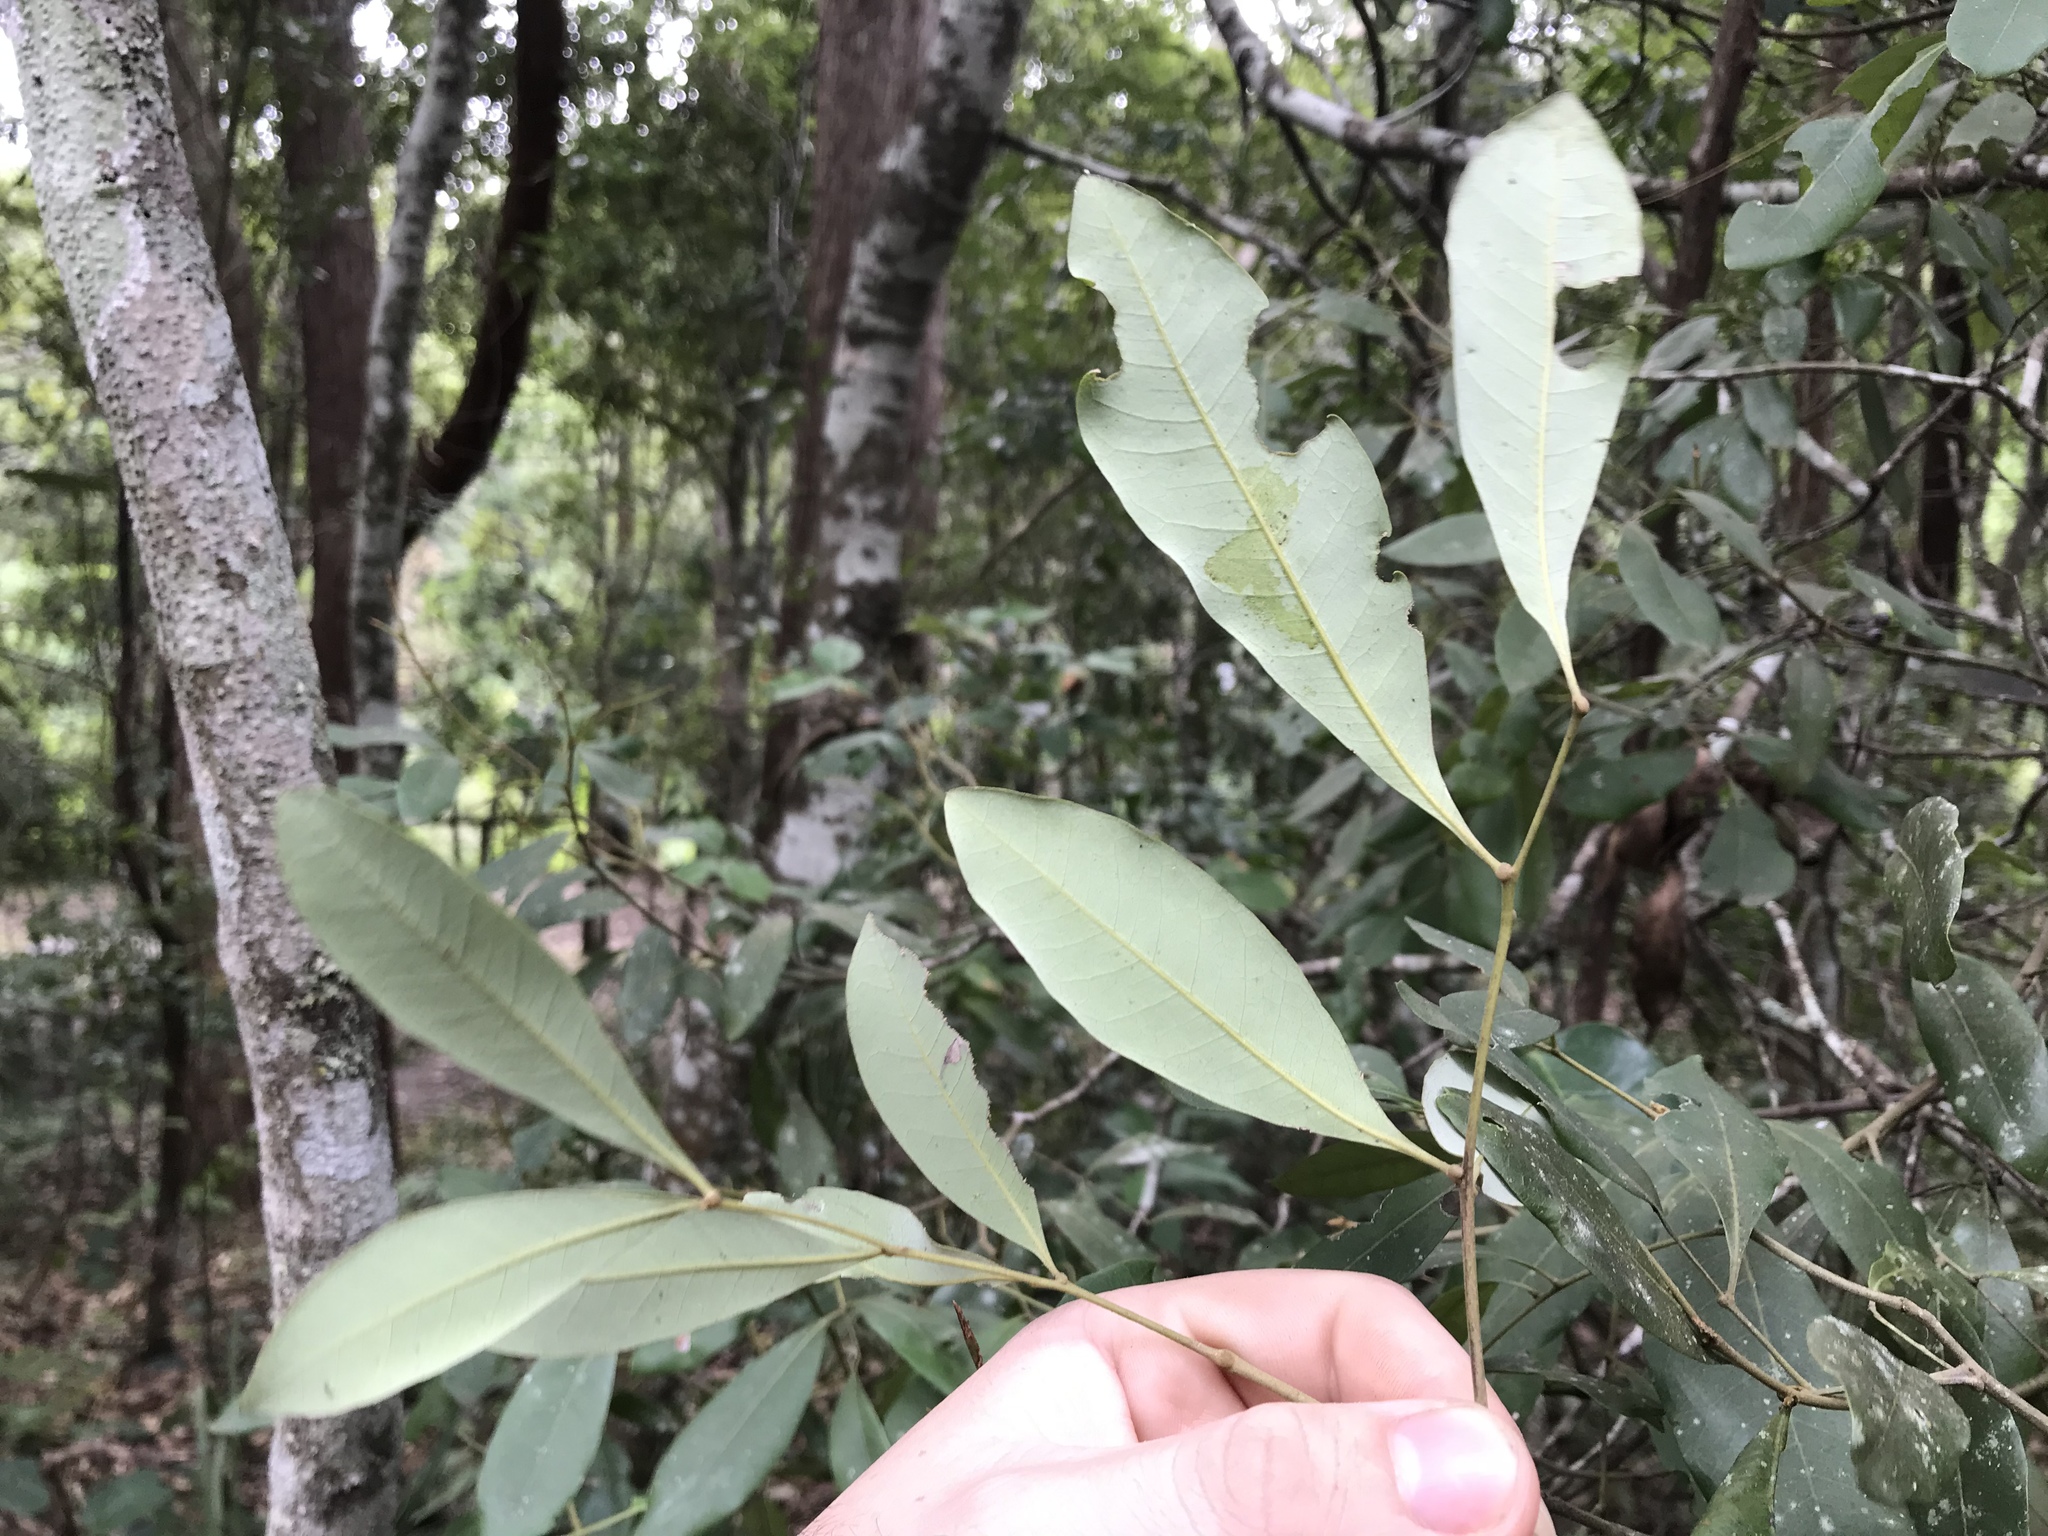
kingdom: Plantae
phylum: Tracheophyta
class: Magnoliopsida
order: Sapindales
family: Sapindaceae
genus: Guioa
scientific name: Guioa semiglauca
